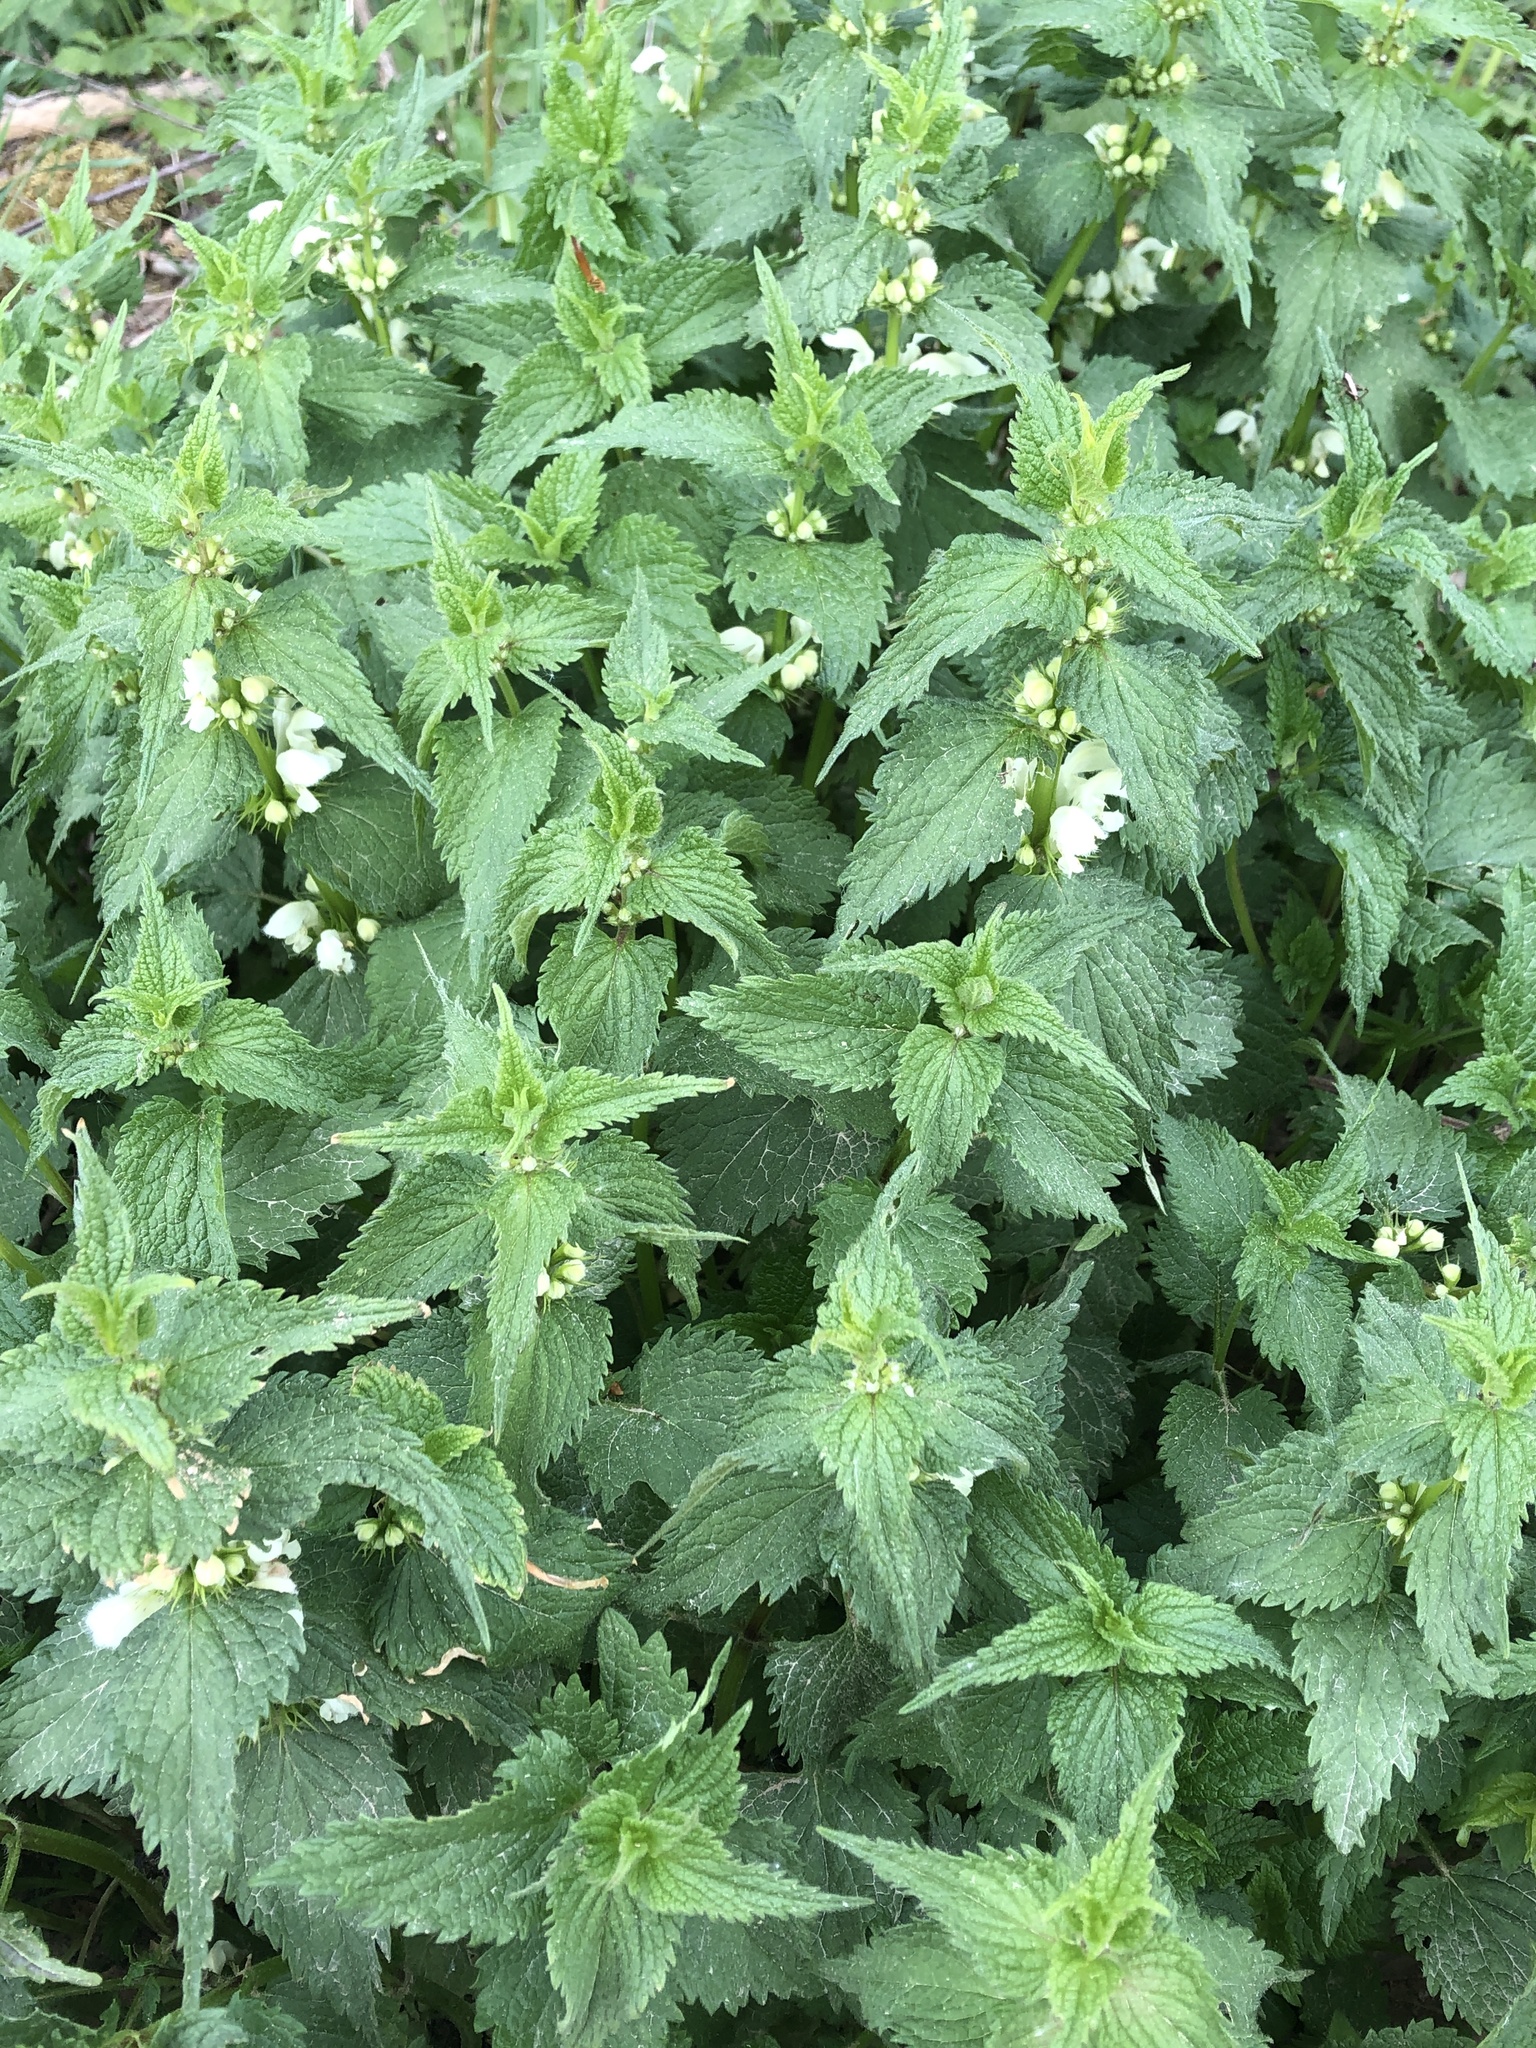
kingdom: Plantae
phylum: Tracheophyta
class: Magnoliopsida
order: Lamiales
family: Lamiaceae
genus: Lamium
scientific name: Lamium album
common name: White dead-nettle
